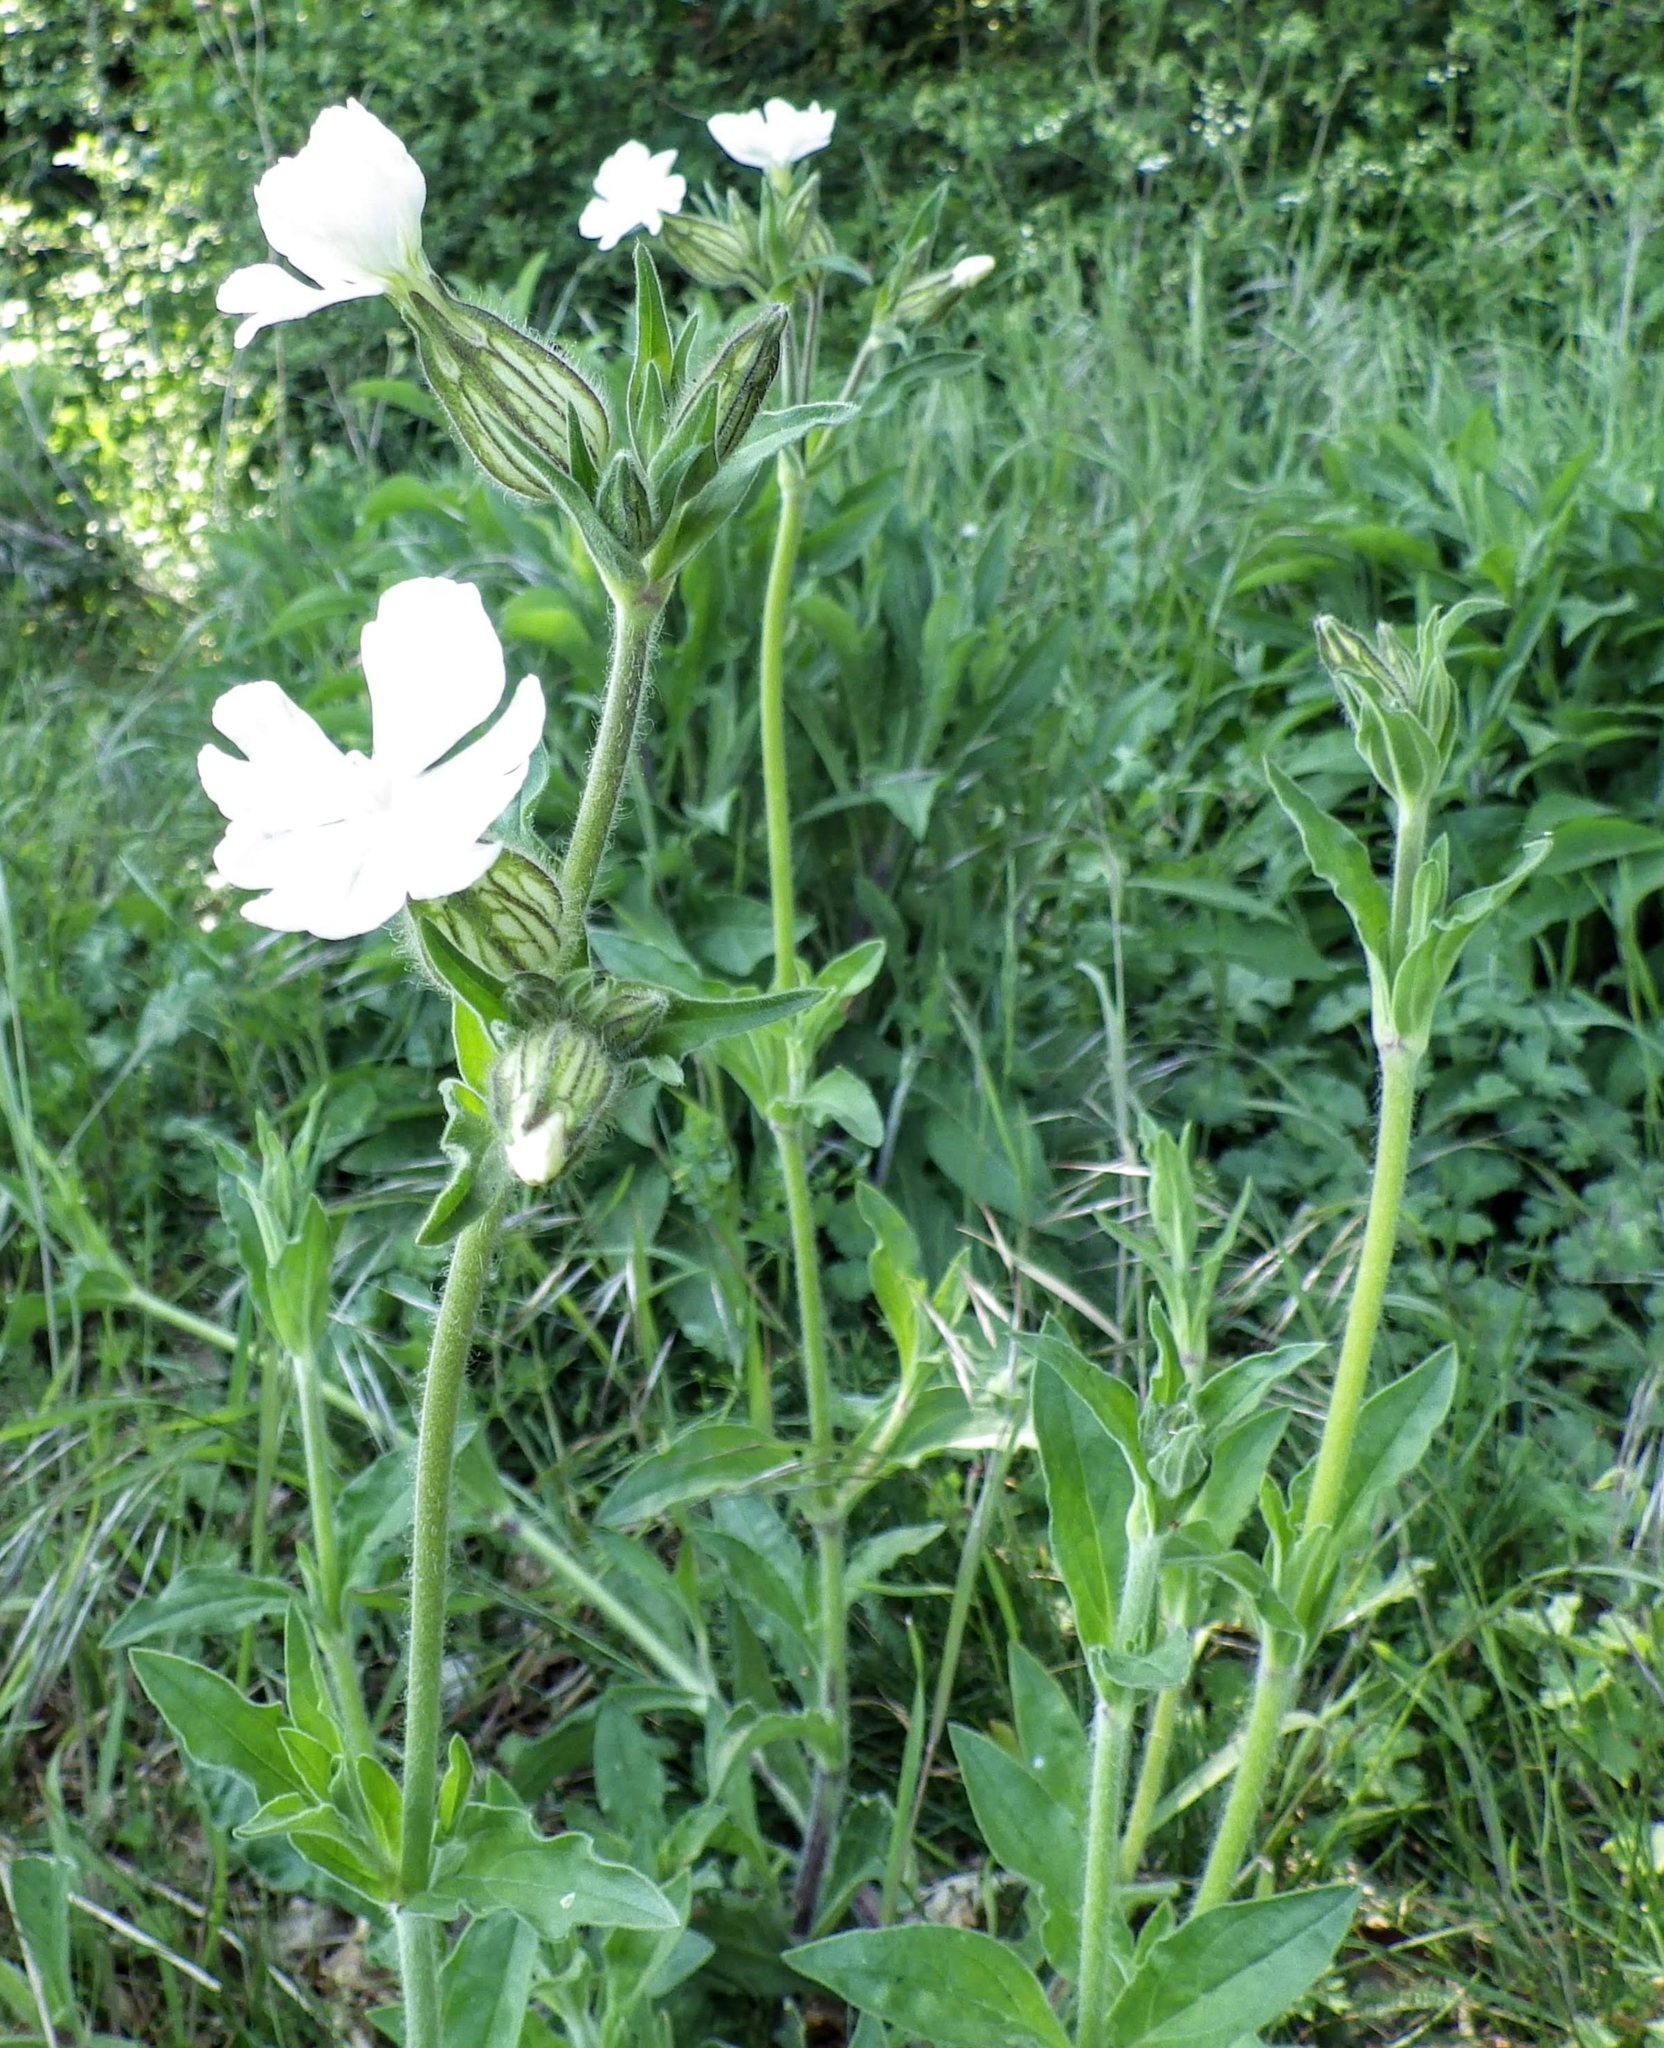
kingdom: Plantae
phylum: Tracheophyta
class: Magnoliopsida
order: Caryophyllales
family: Caryophyllaceae
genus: Silene
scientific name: Silene latifolia
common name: White campion
